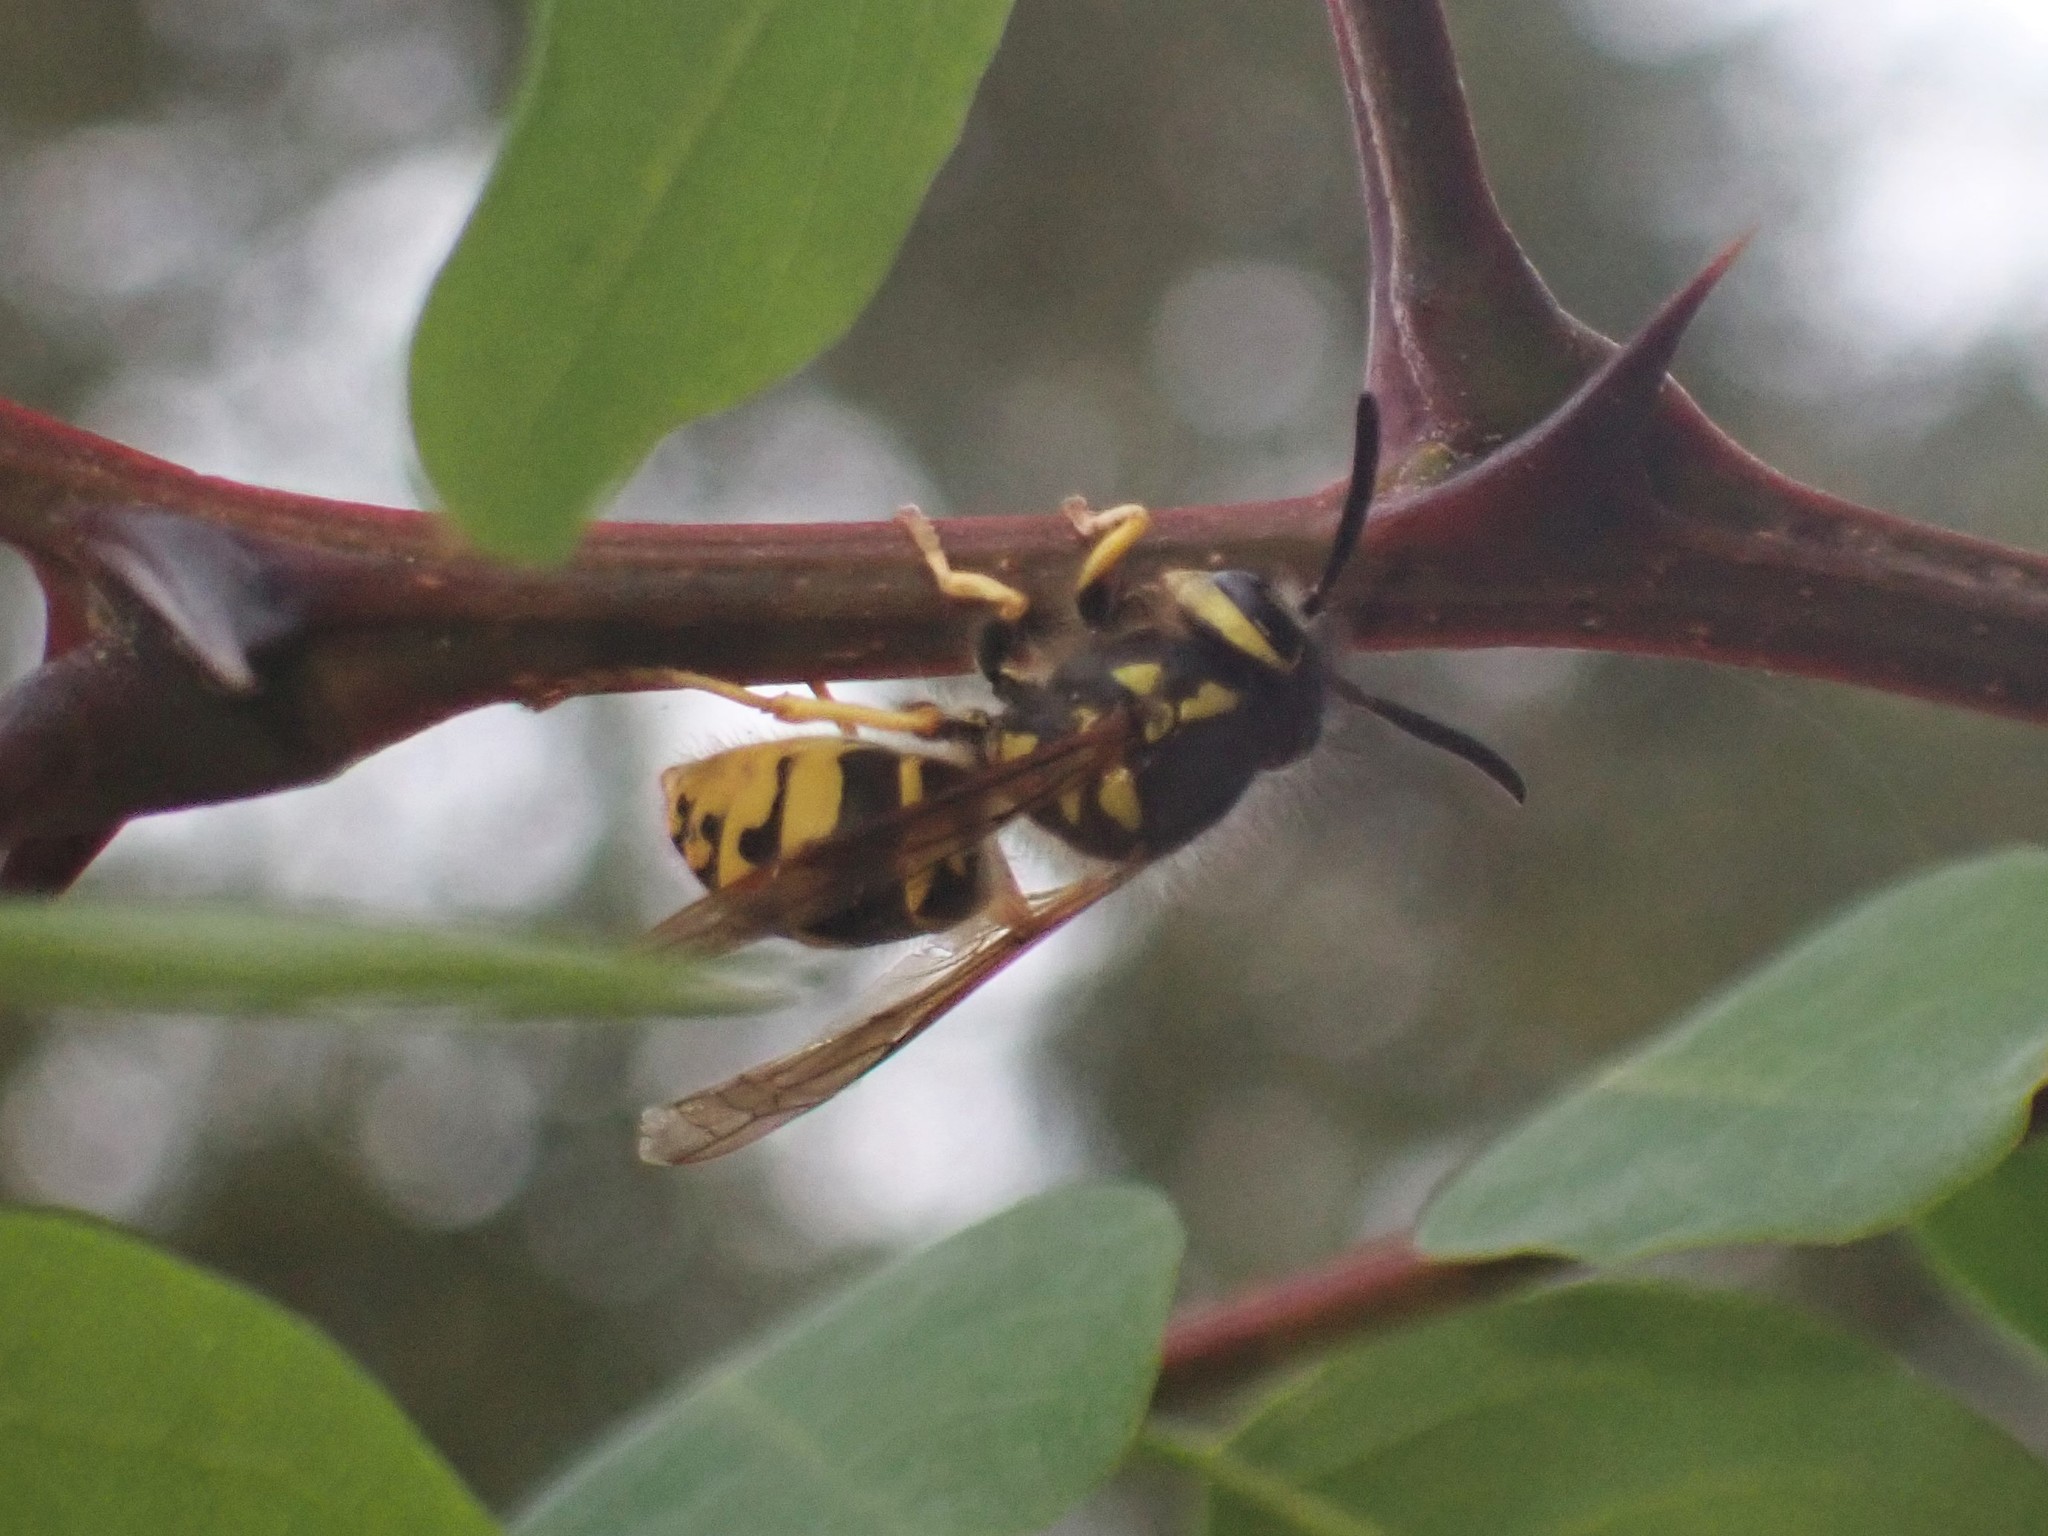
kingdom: Animalia
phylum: Arthropoda
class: Insecta
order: Hymenoptera
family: Vespidae
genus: Vespula
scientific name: Vespula pensylvanica
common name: Western yellowjacket
